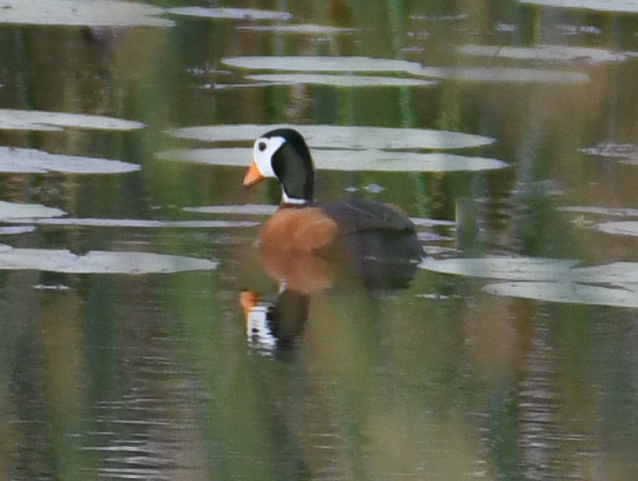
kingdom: Animalia
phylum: Chordata
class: Aves
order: Anseriformes
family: Anatidae
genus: Nettapus
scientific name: Nettapus auritus
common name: African pygmy-goose
